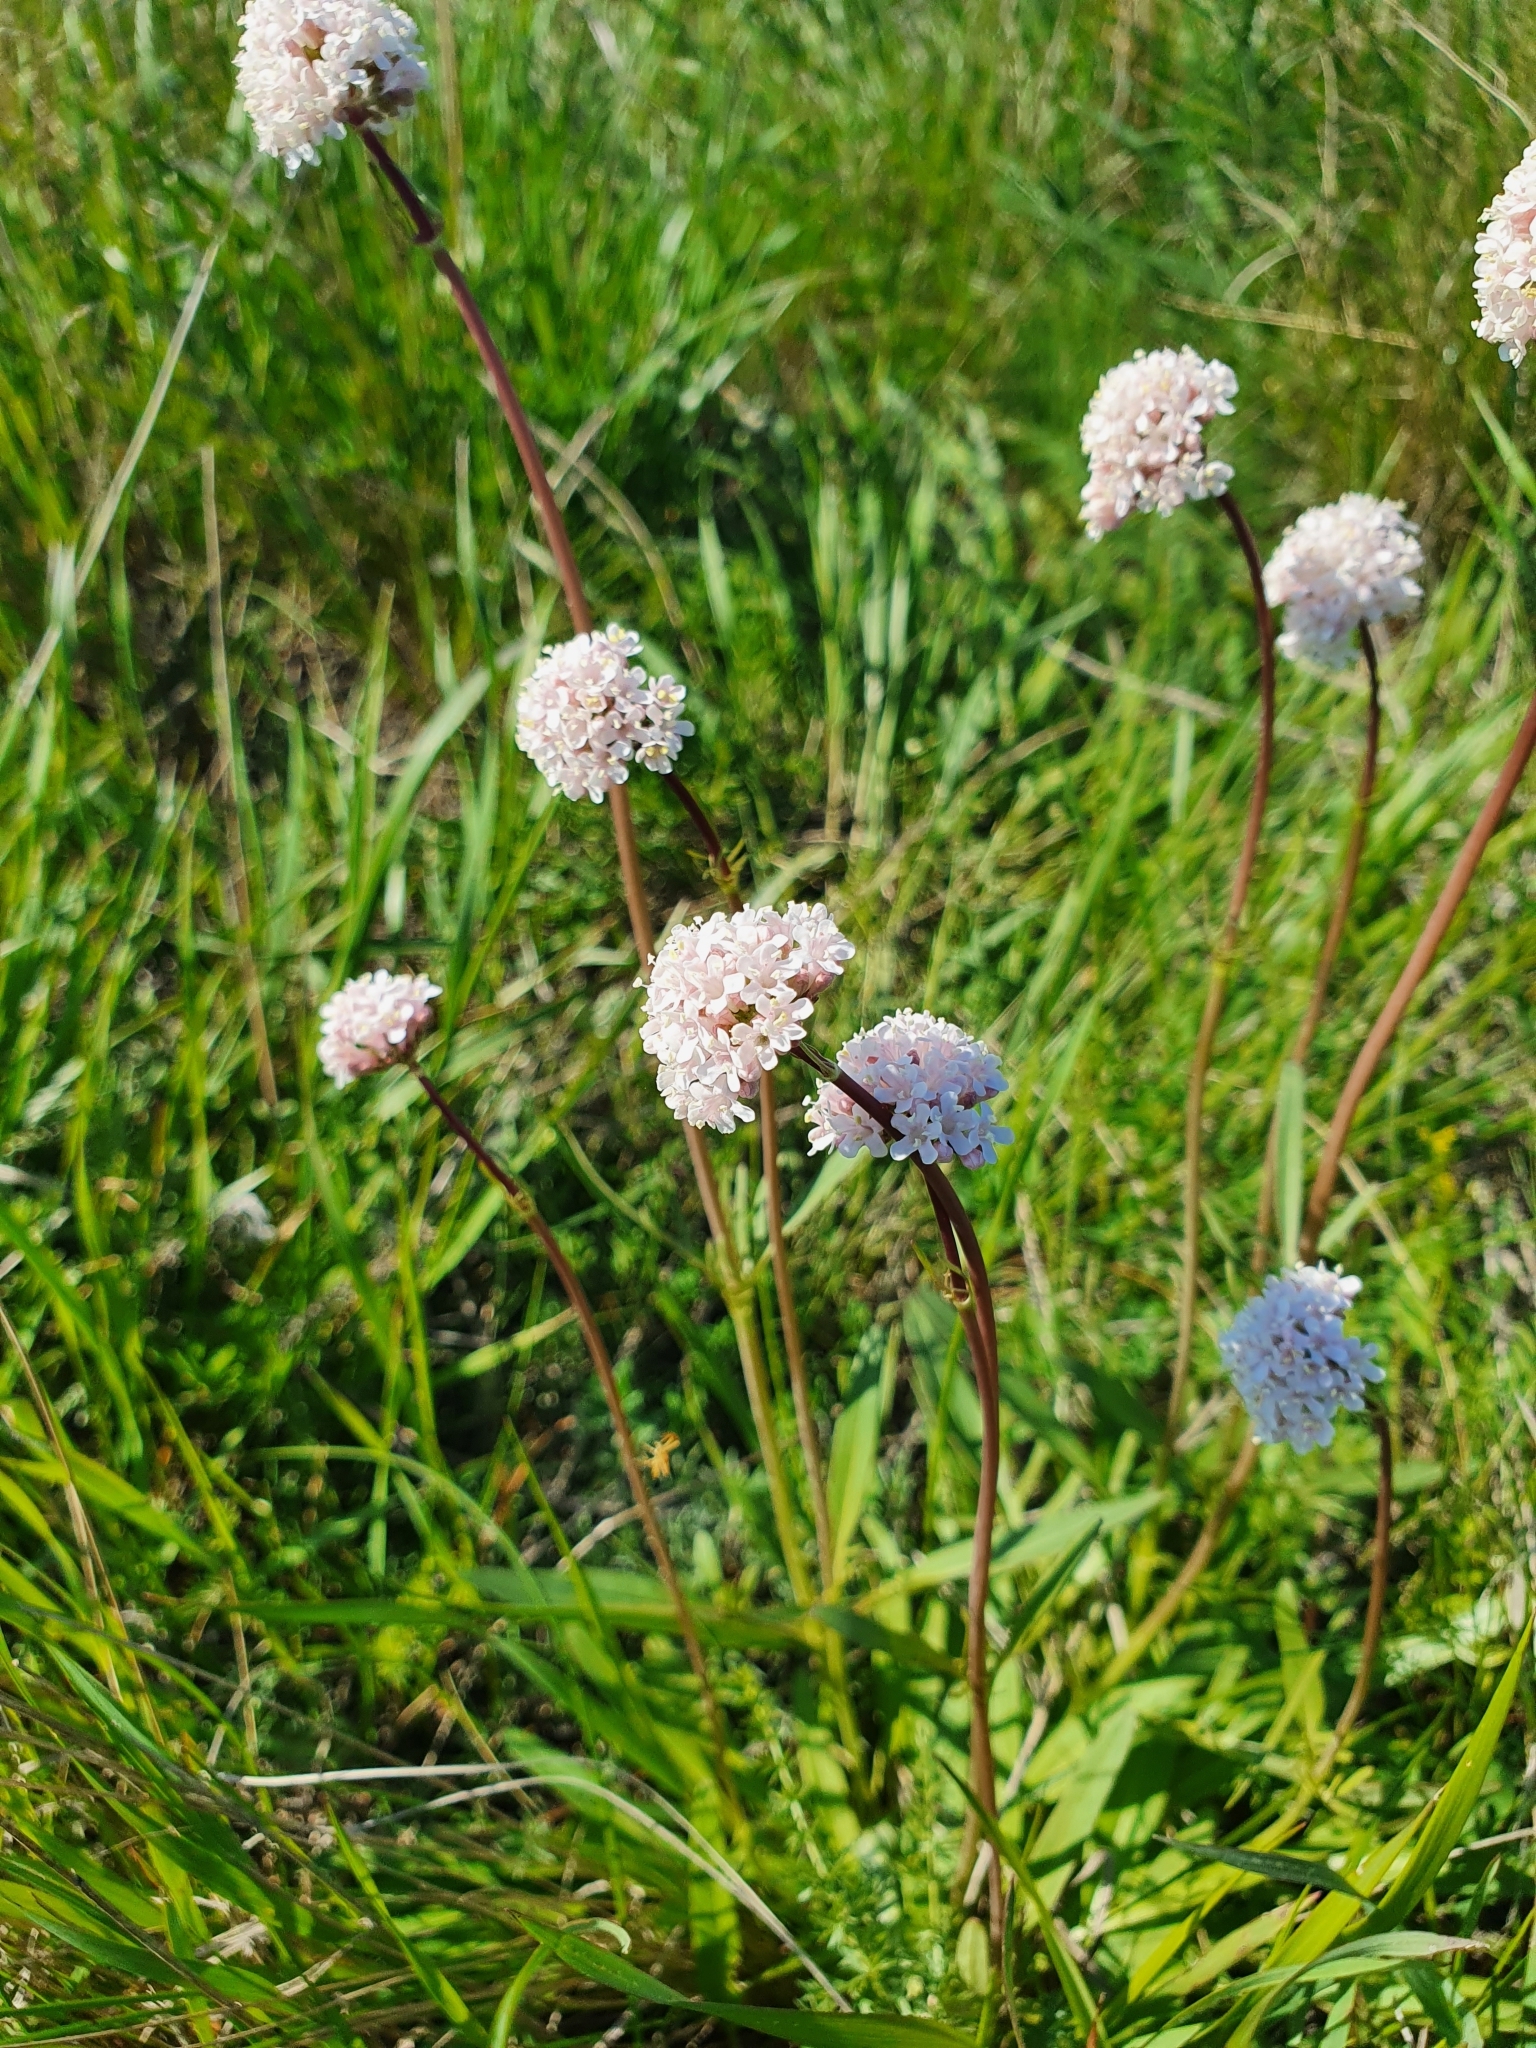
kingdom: Plantae
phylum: Tracheophyta
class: Magnoliopsida
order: Dipsacales
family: Caprifoliaceae
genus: Valeriana
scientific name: Valeriana tuberosa
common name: Tuberous valerian
